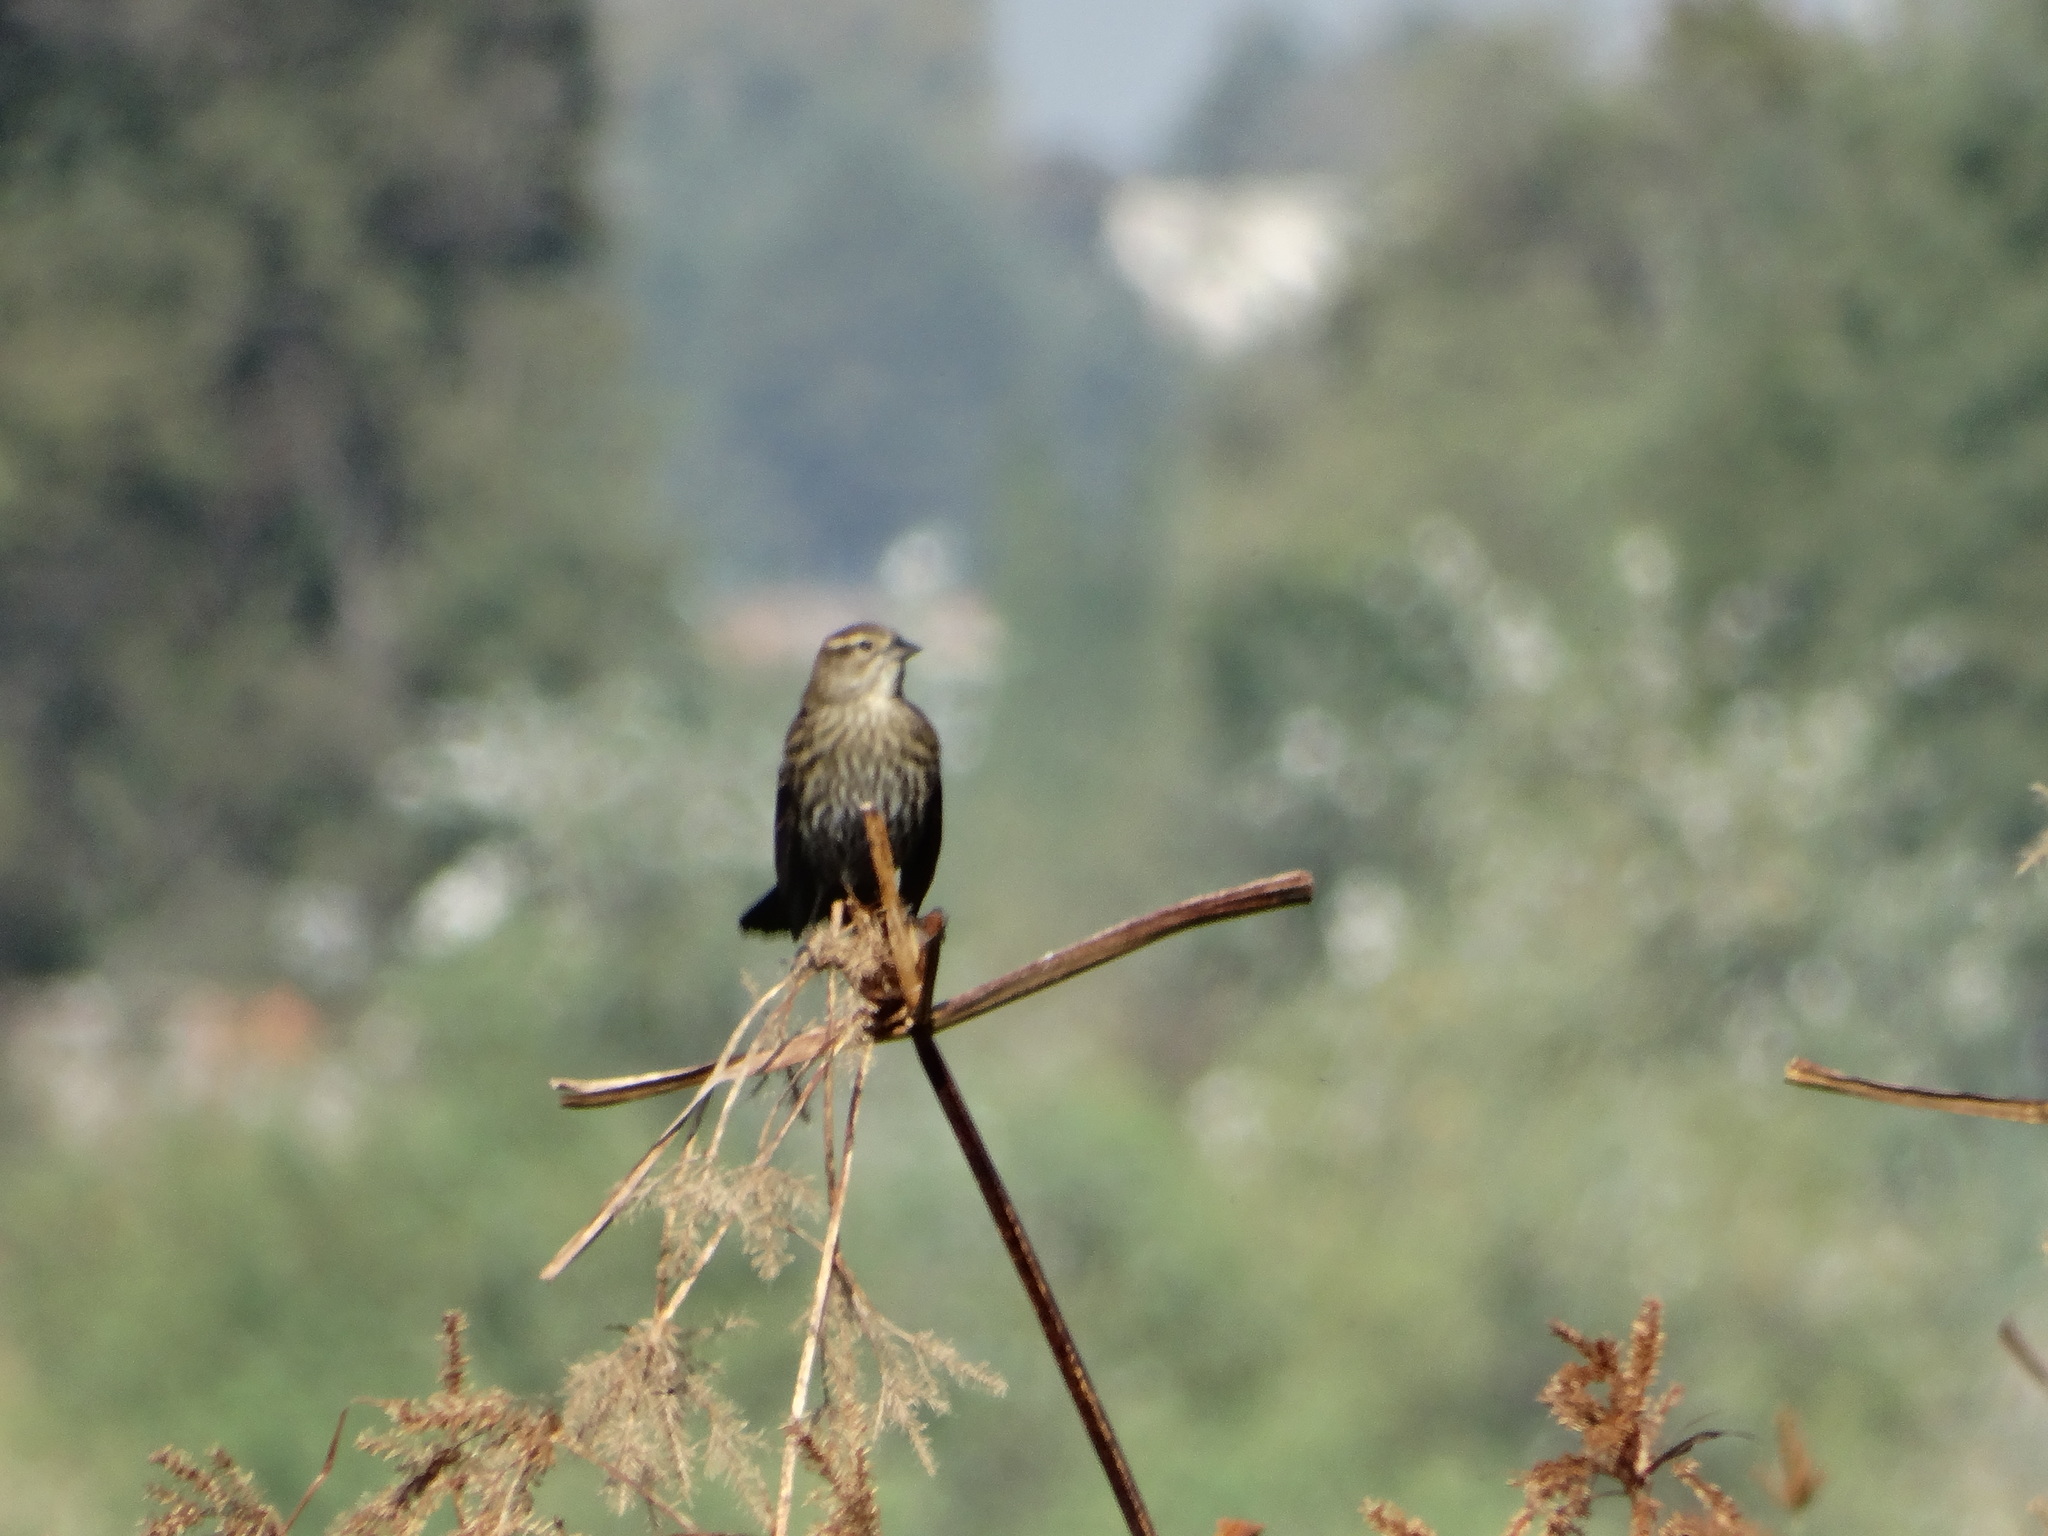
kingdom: Animalia
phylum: Chordata
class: Aves
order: Passeriformes
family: Icteridae
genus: Agelaius
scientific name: Agelaius phoeniceus
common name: Red-winged blackbird
